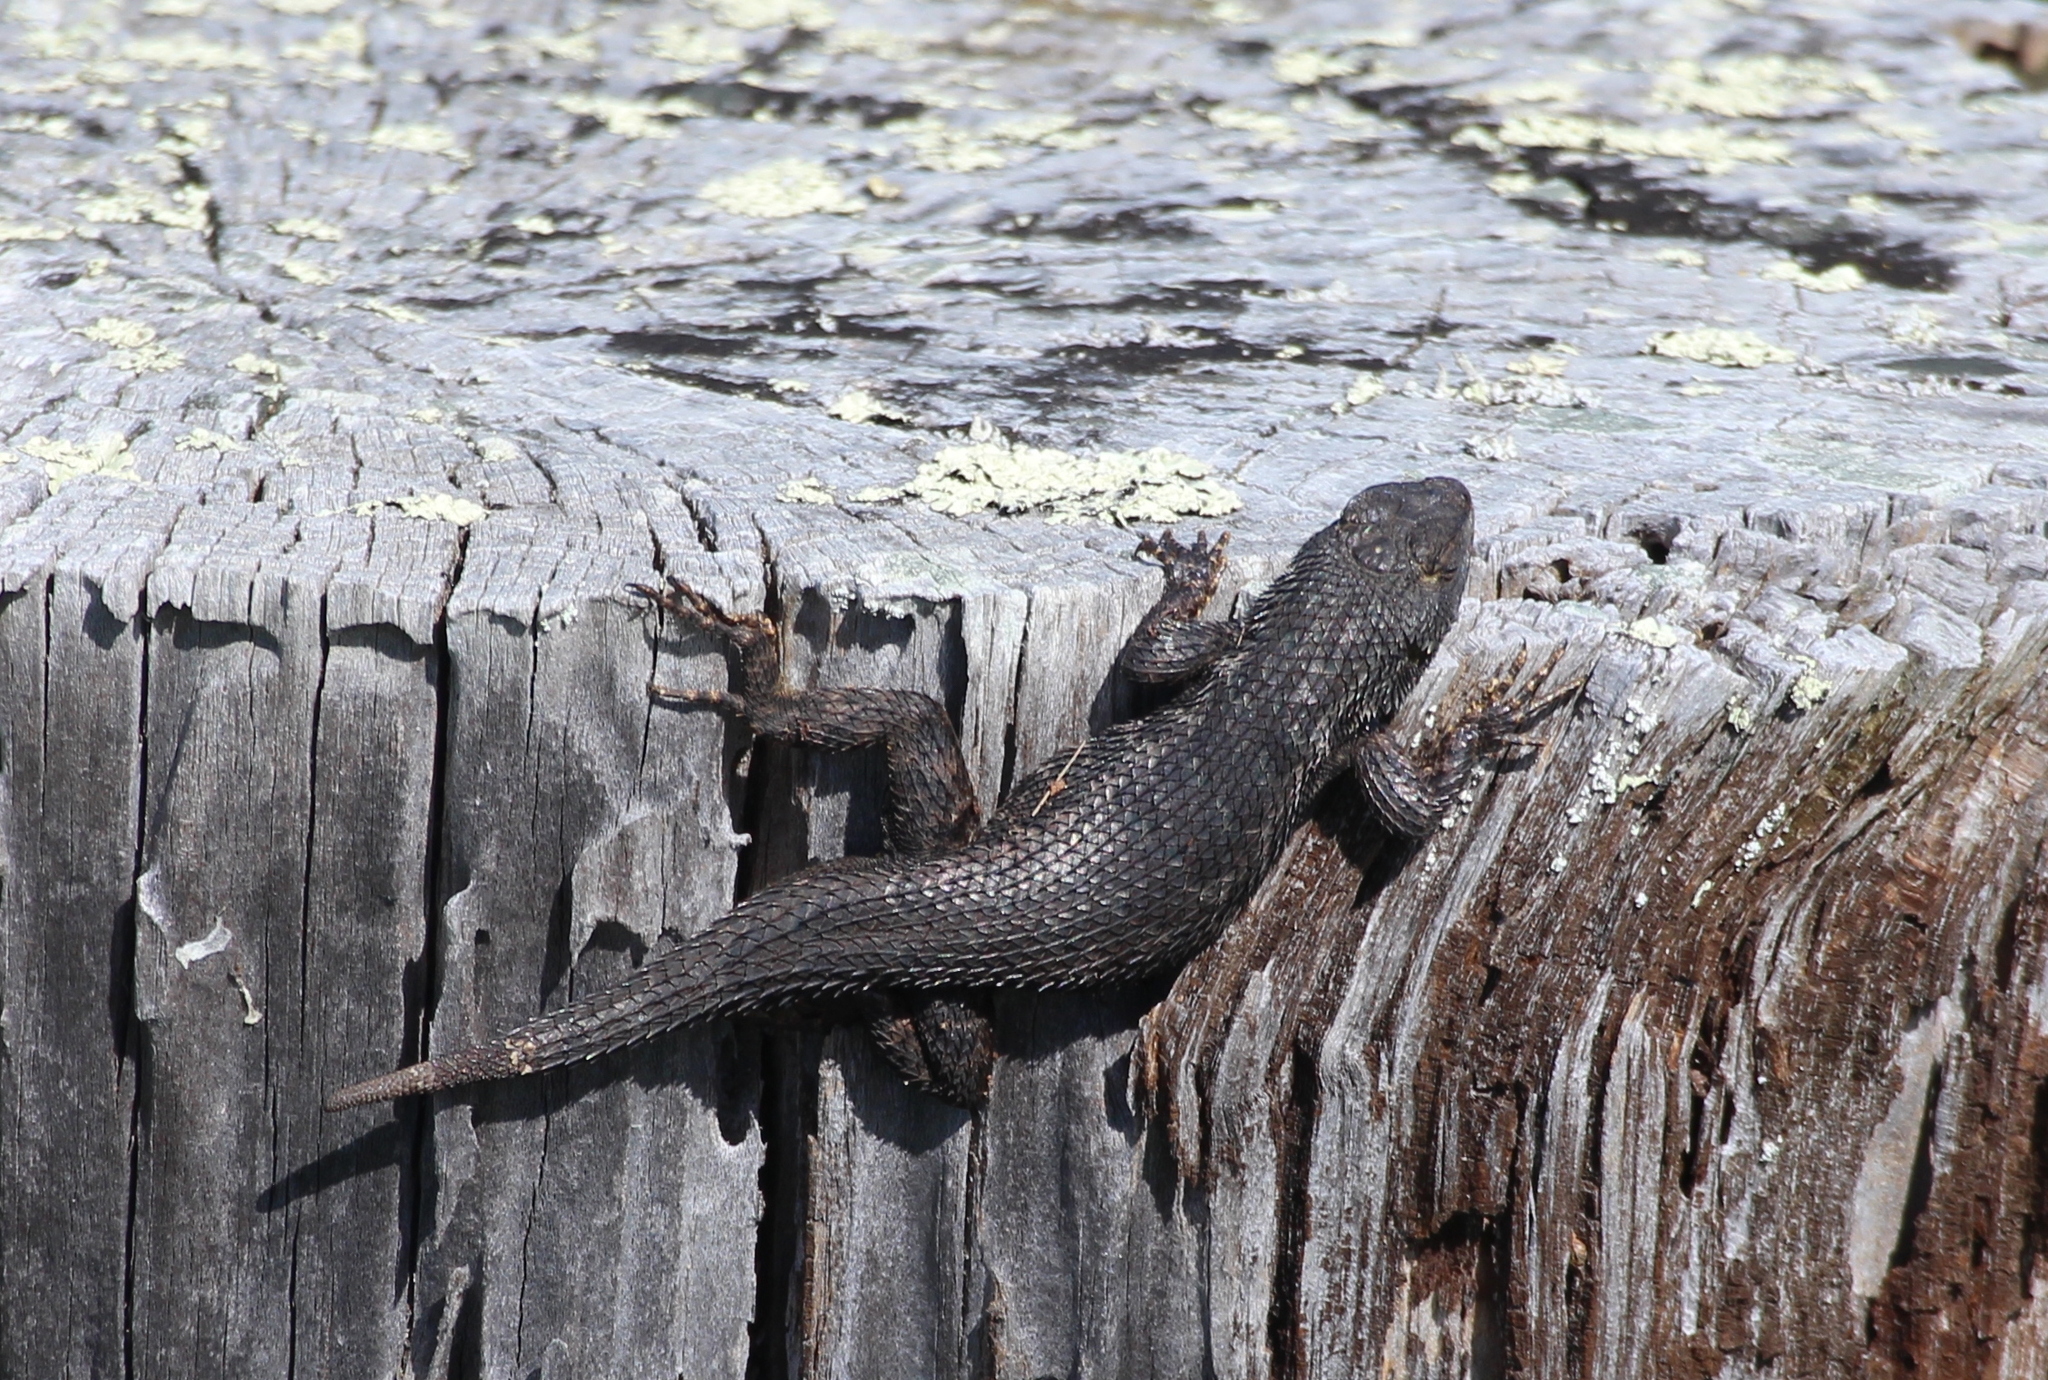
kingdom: Animalia
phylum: Chordata
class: Squamata
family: Phrynosomatidae
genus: Sceloporus
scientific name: Sceloporus occidentalis
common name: Western fence lizard
